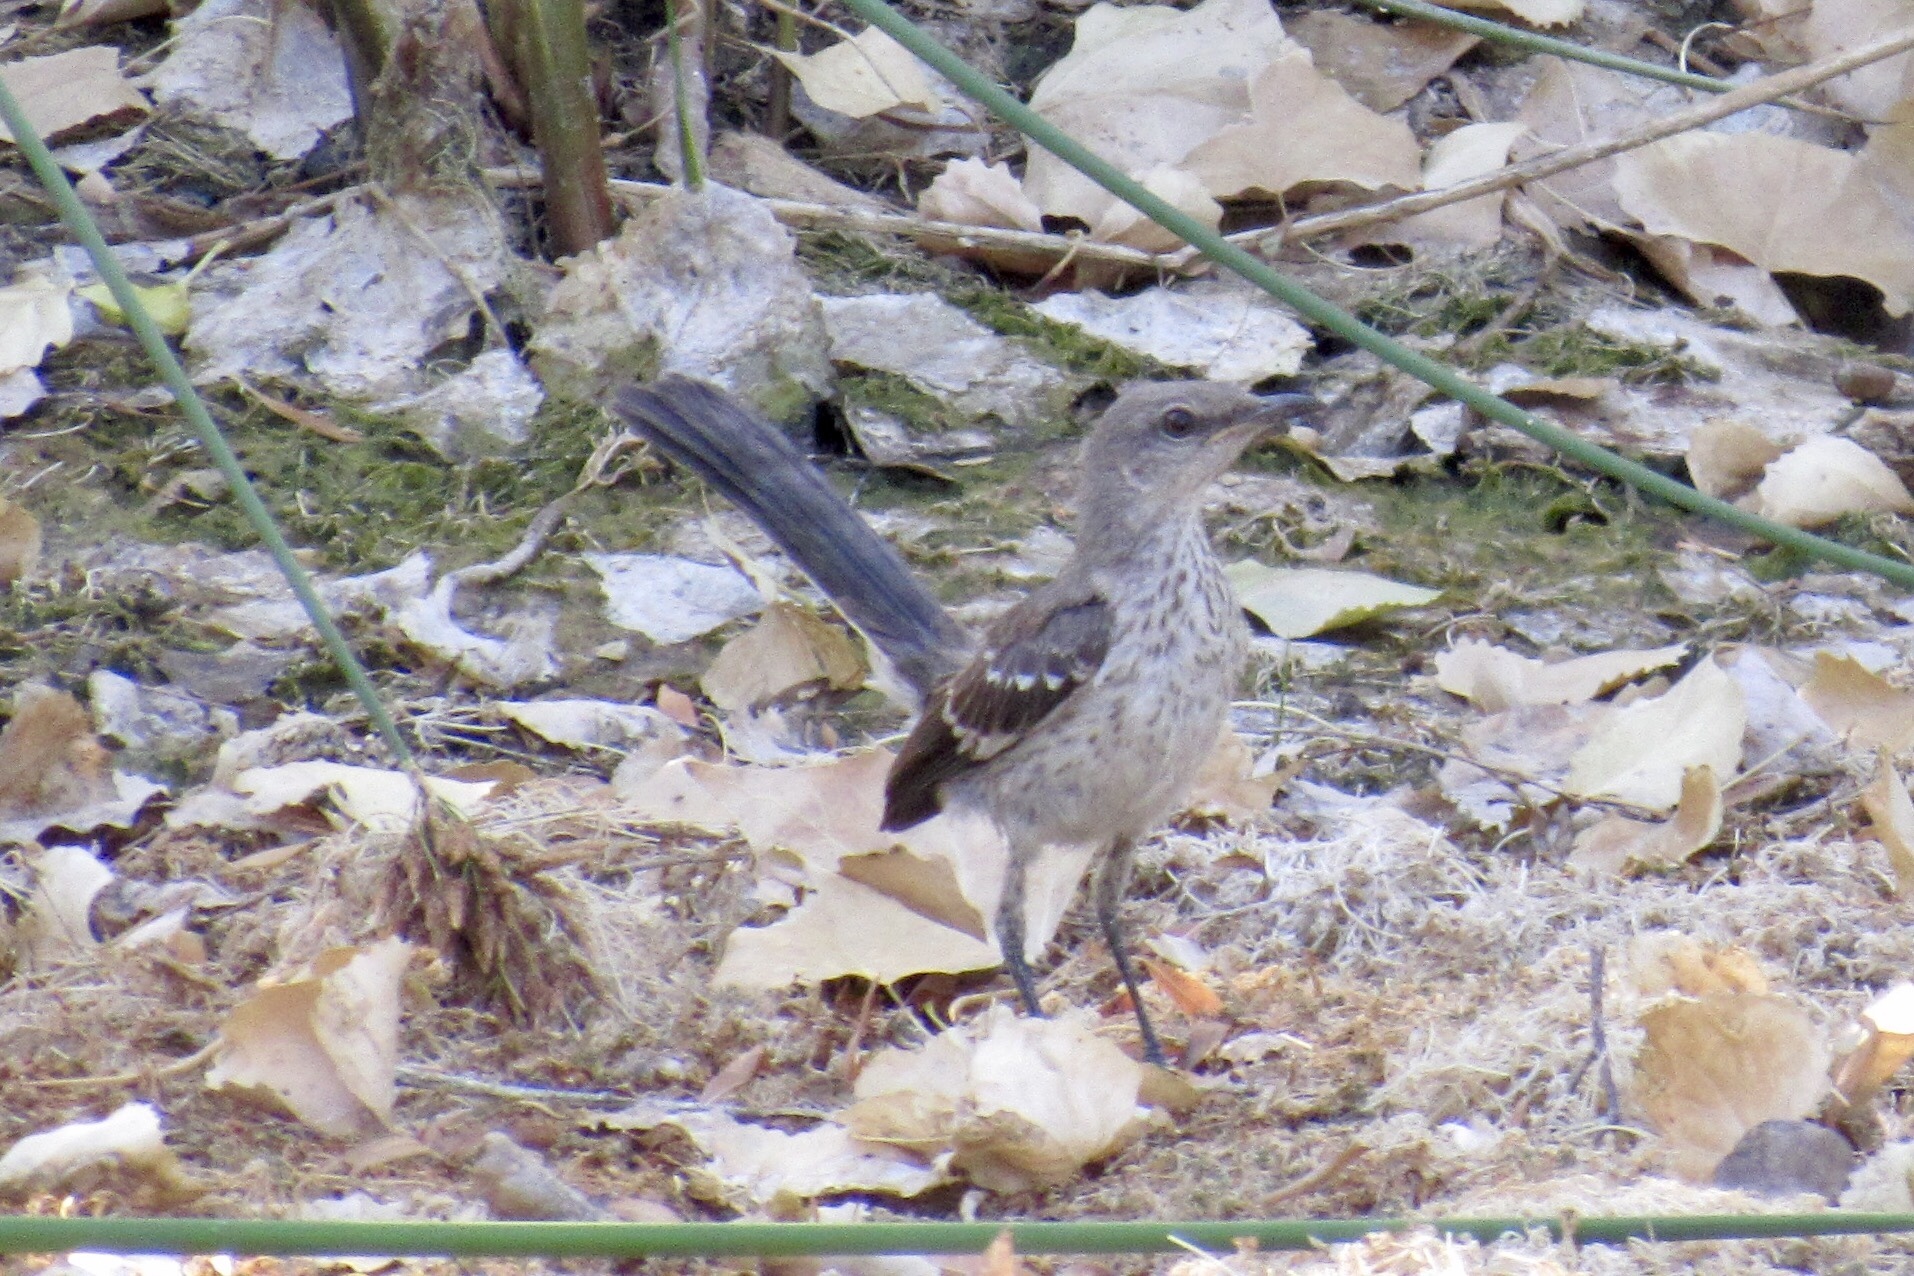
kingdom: Animalia
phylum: Chordata
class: Aves
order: Passeriformes
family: Mimidae
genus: Mimus
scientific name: Mimus polyglottos
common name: Northern mockingbird
